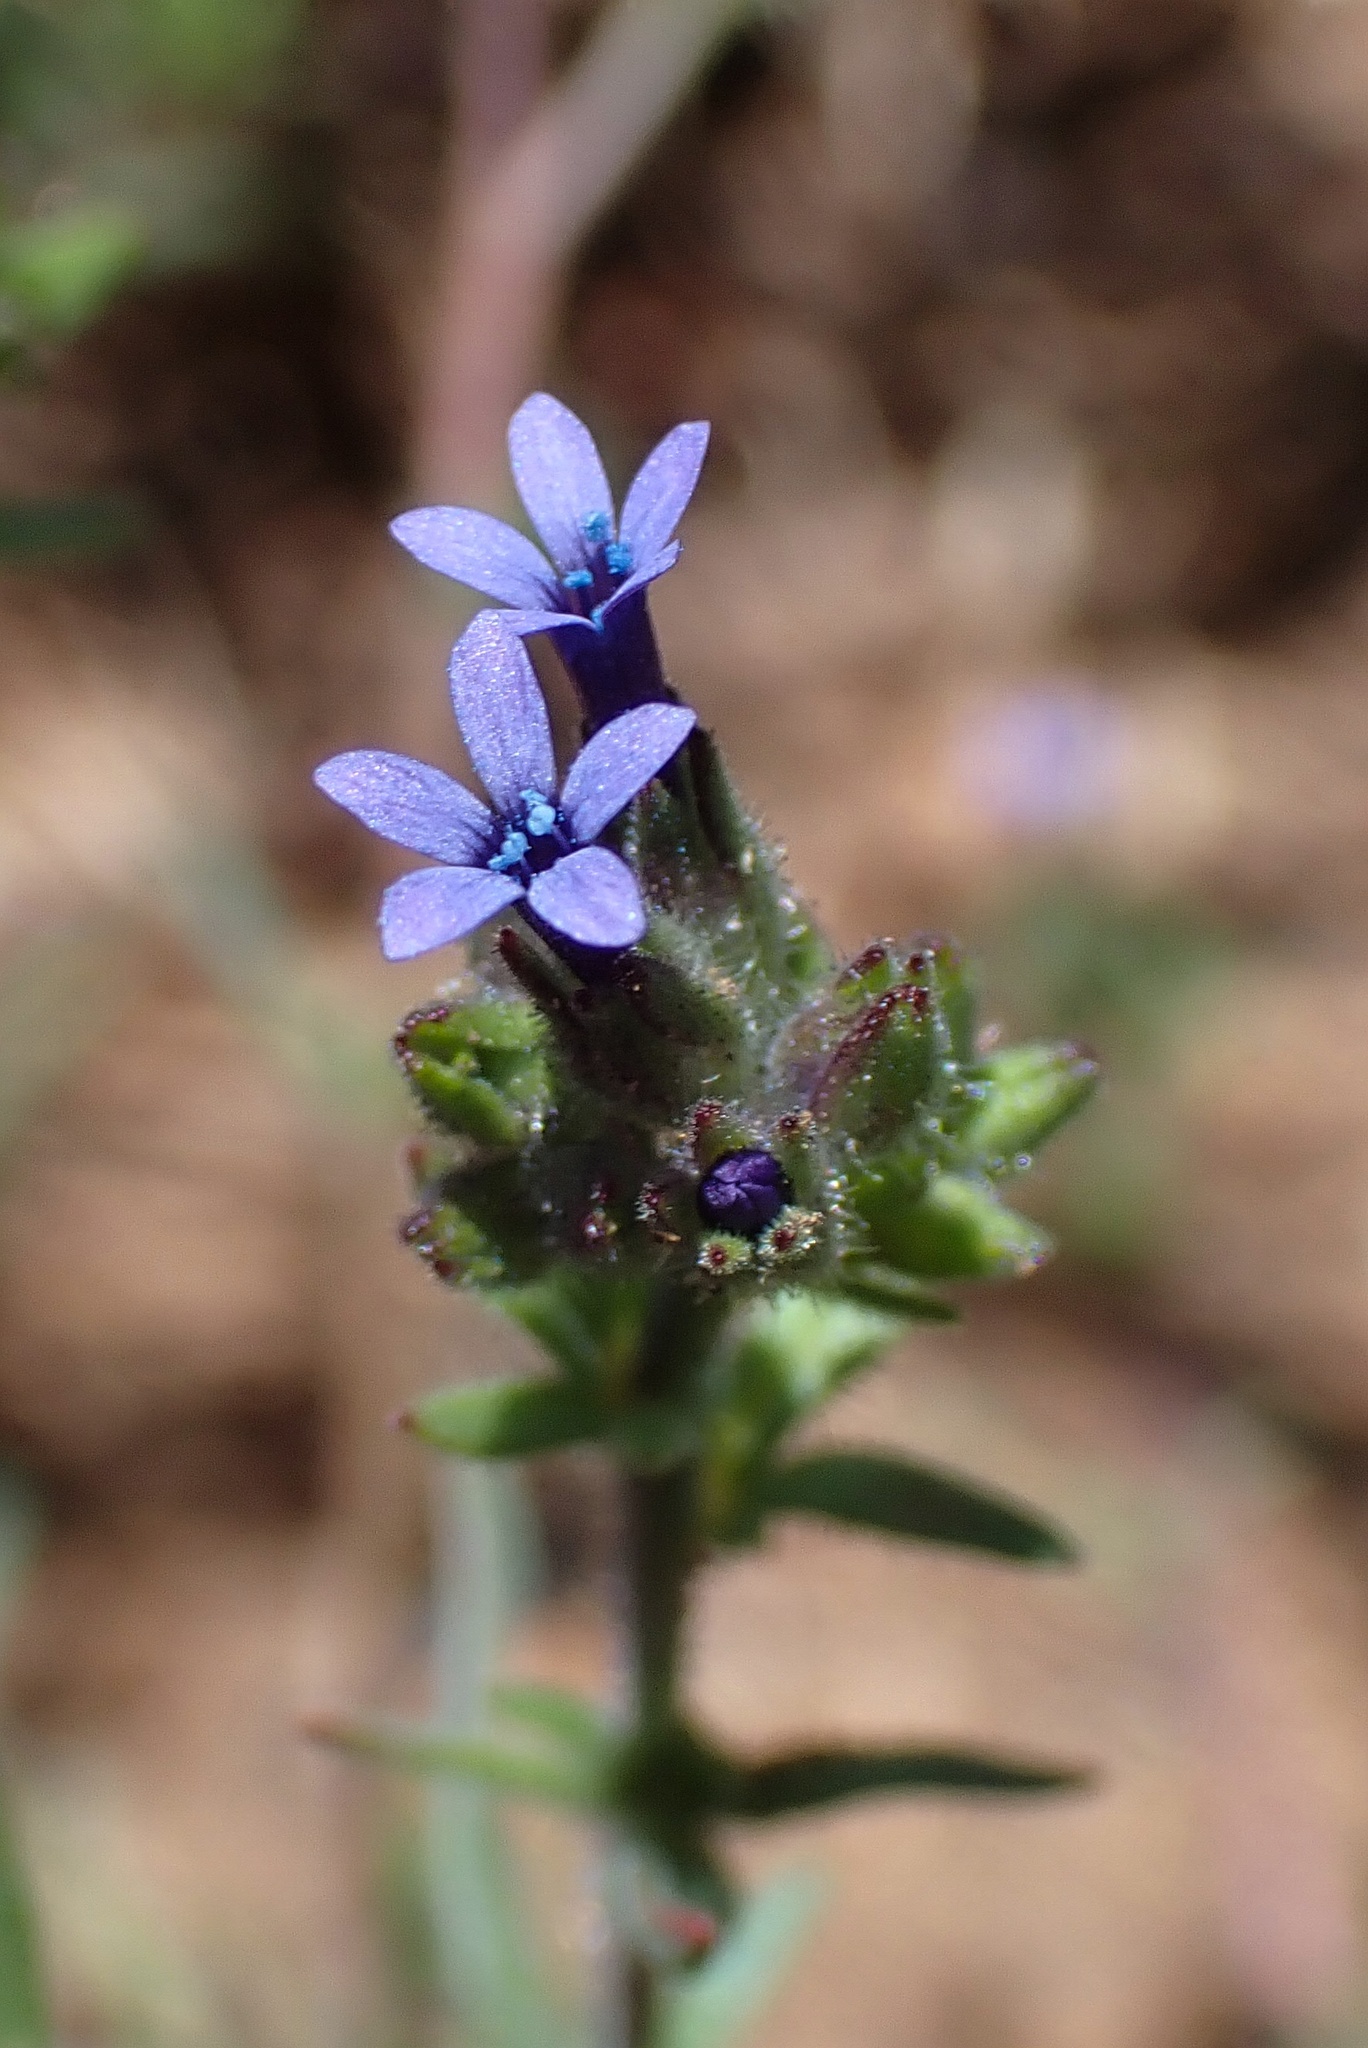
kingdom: Plantae
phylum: Tracheophyta
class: Magnoliopsida
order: Ericales
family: Polemoniaceae
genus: Allophyllum
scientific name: Allophyllum gilioides
